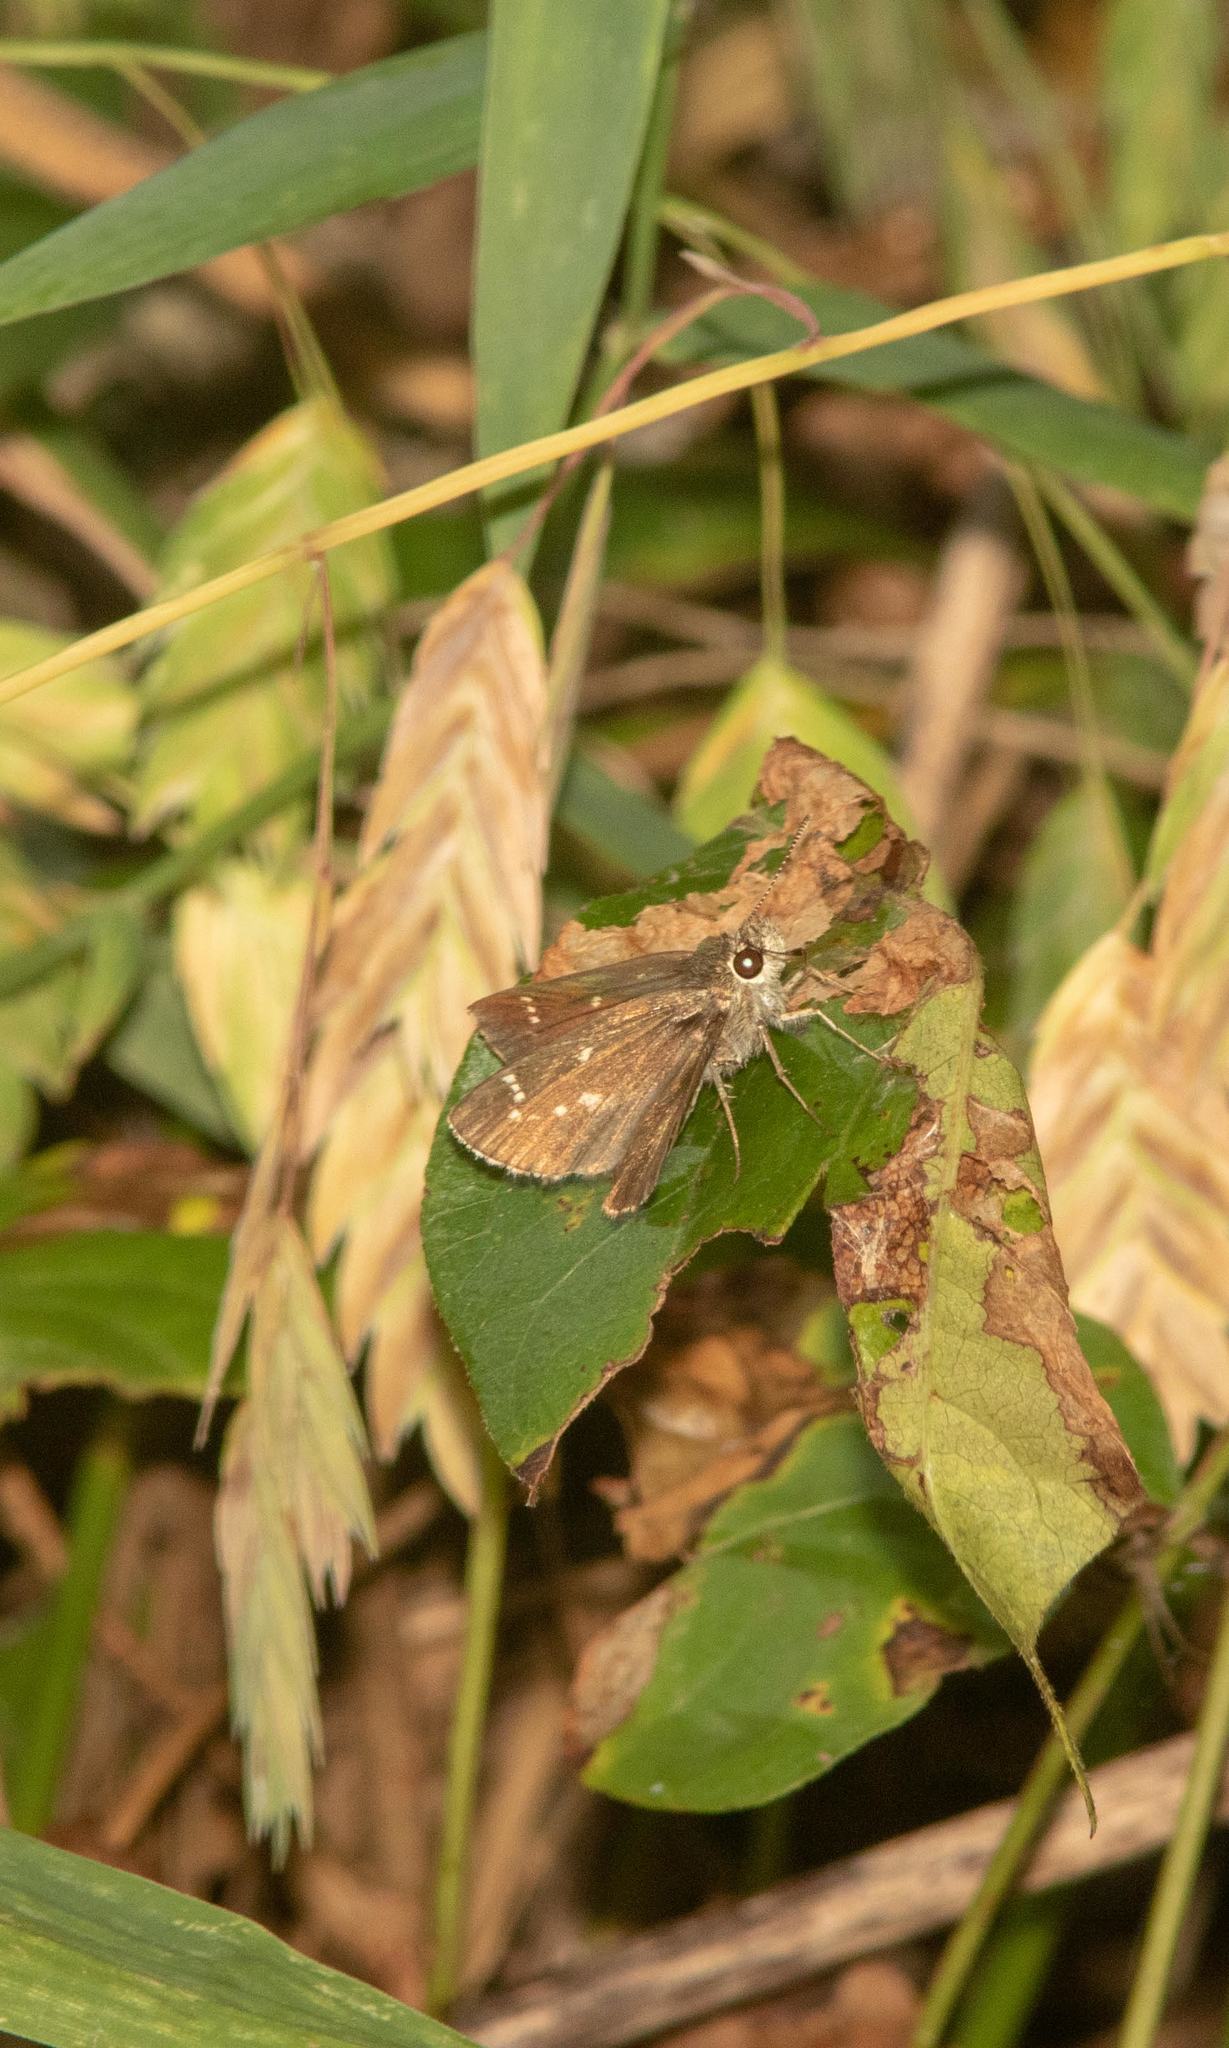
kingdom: Animalia
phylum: Arthropoda
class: Insecta
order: Lepidoptera
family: Hesperiidae
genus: Mastor
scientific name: Mastor celia
